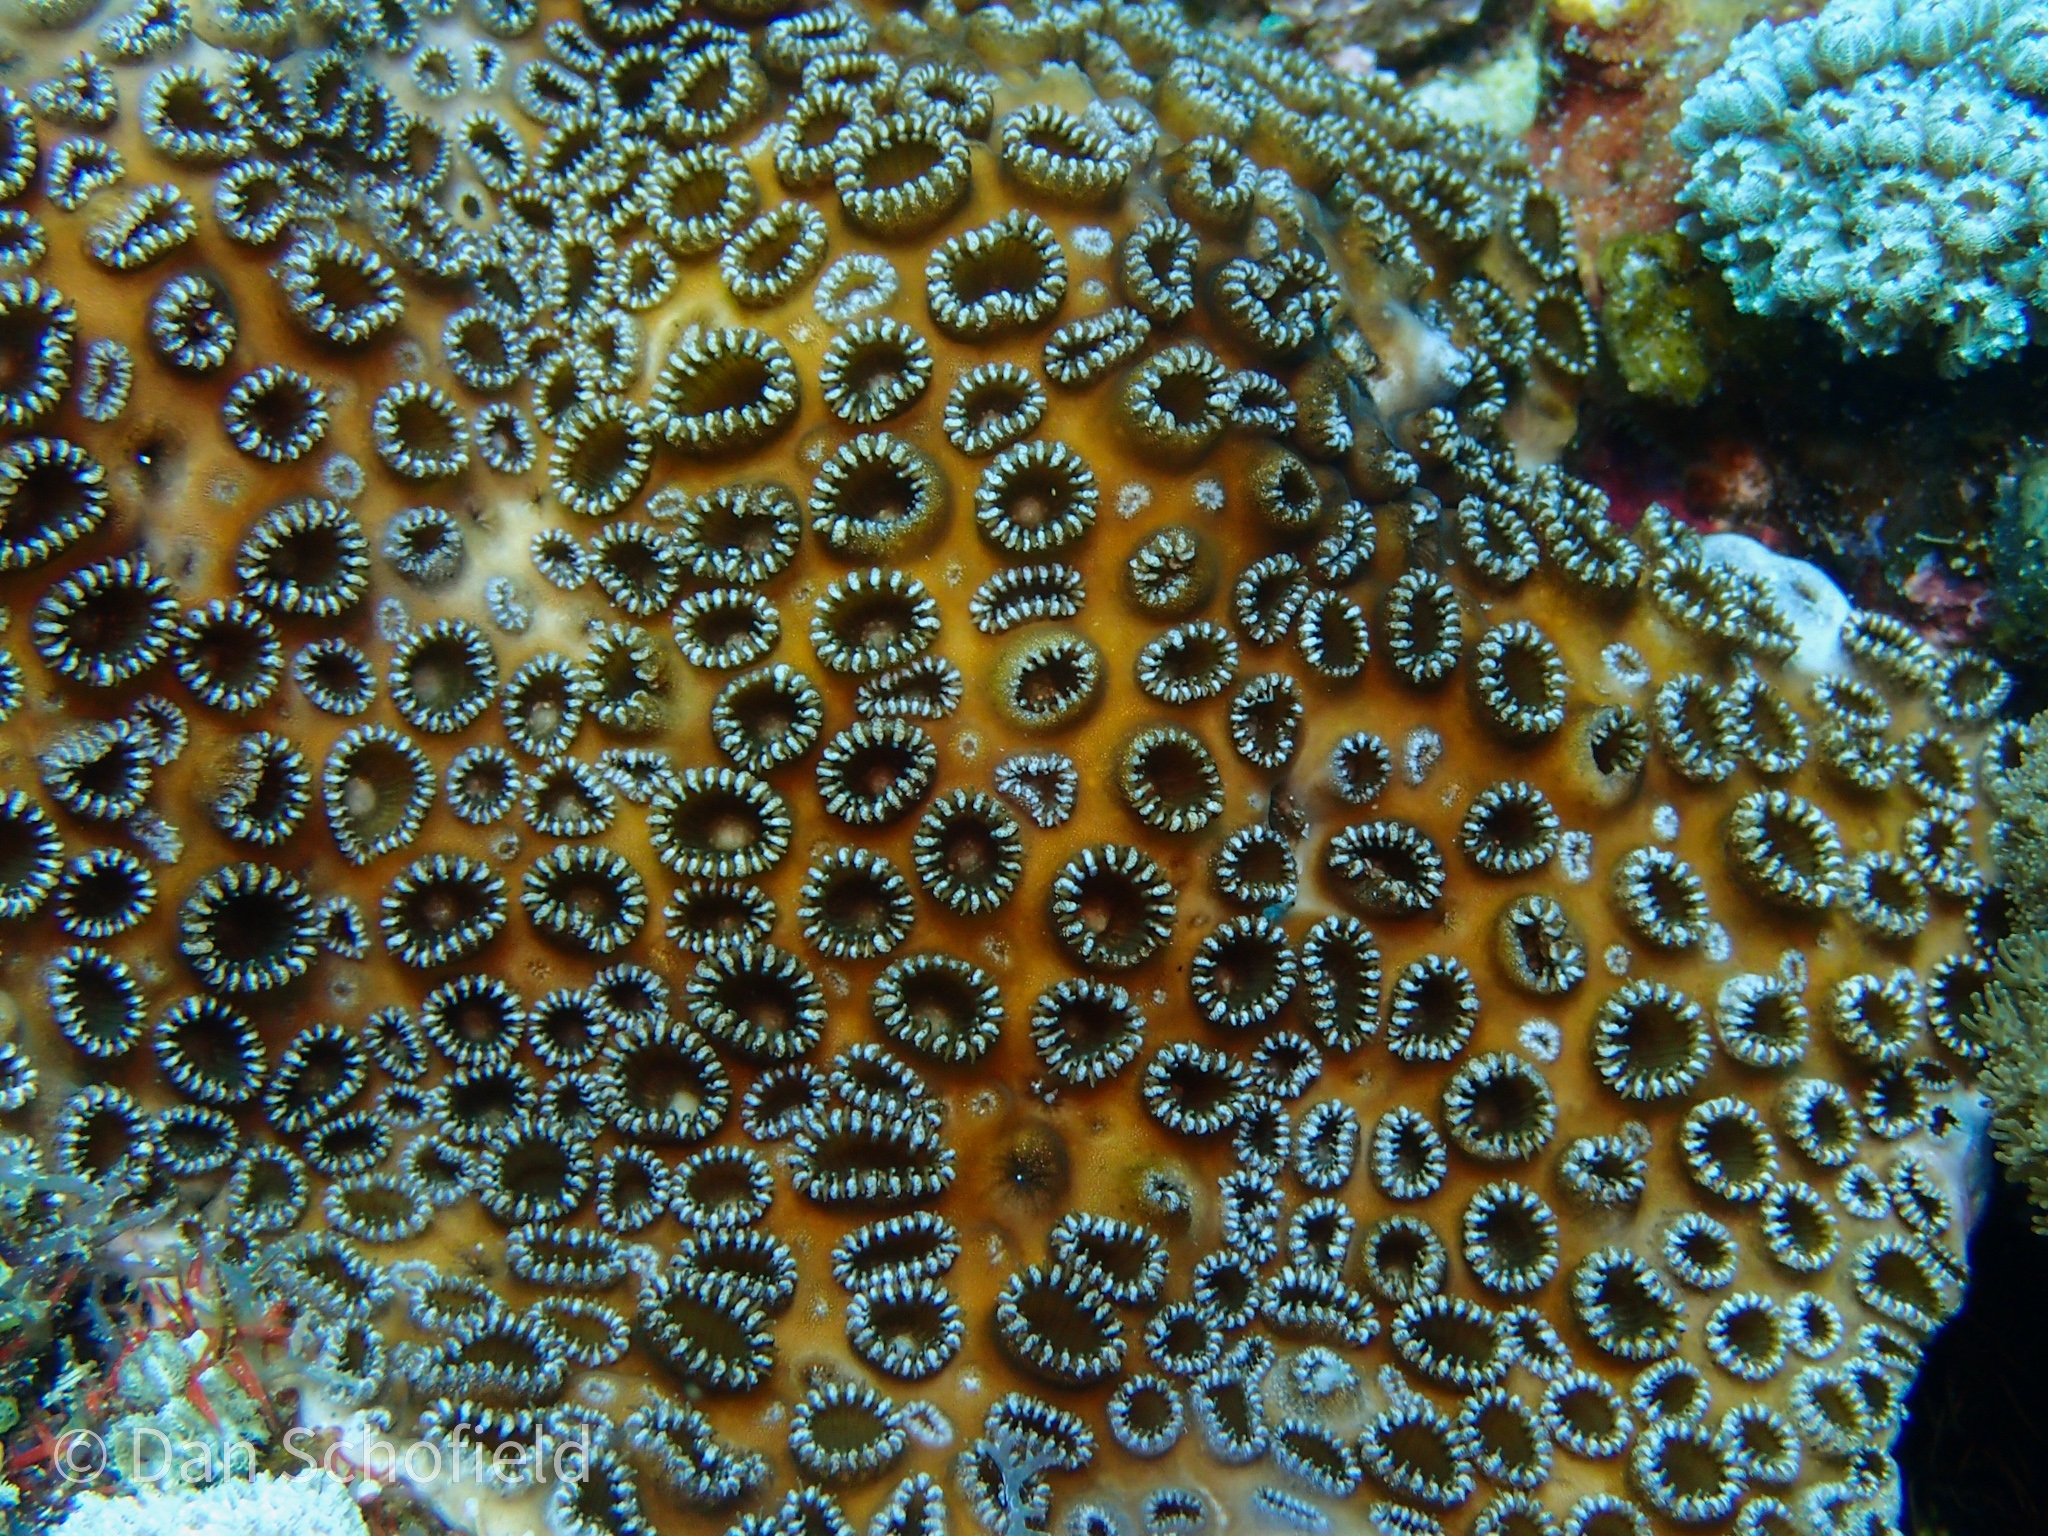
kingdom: Animalia
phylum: Cnidaria
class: Anthozoa
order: Zoantharia
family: Sphenopidae
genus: Palythoa
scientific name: Palythoa tuberculosa
